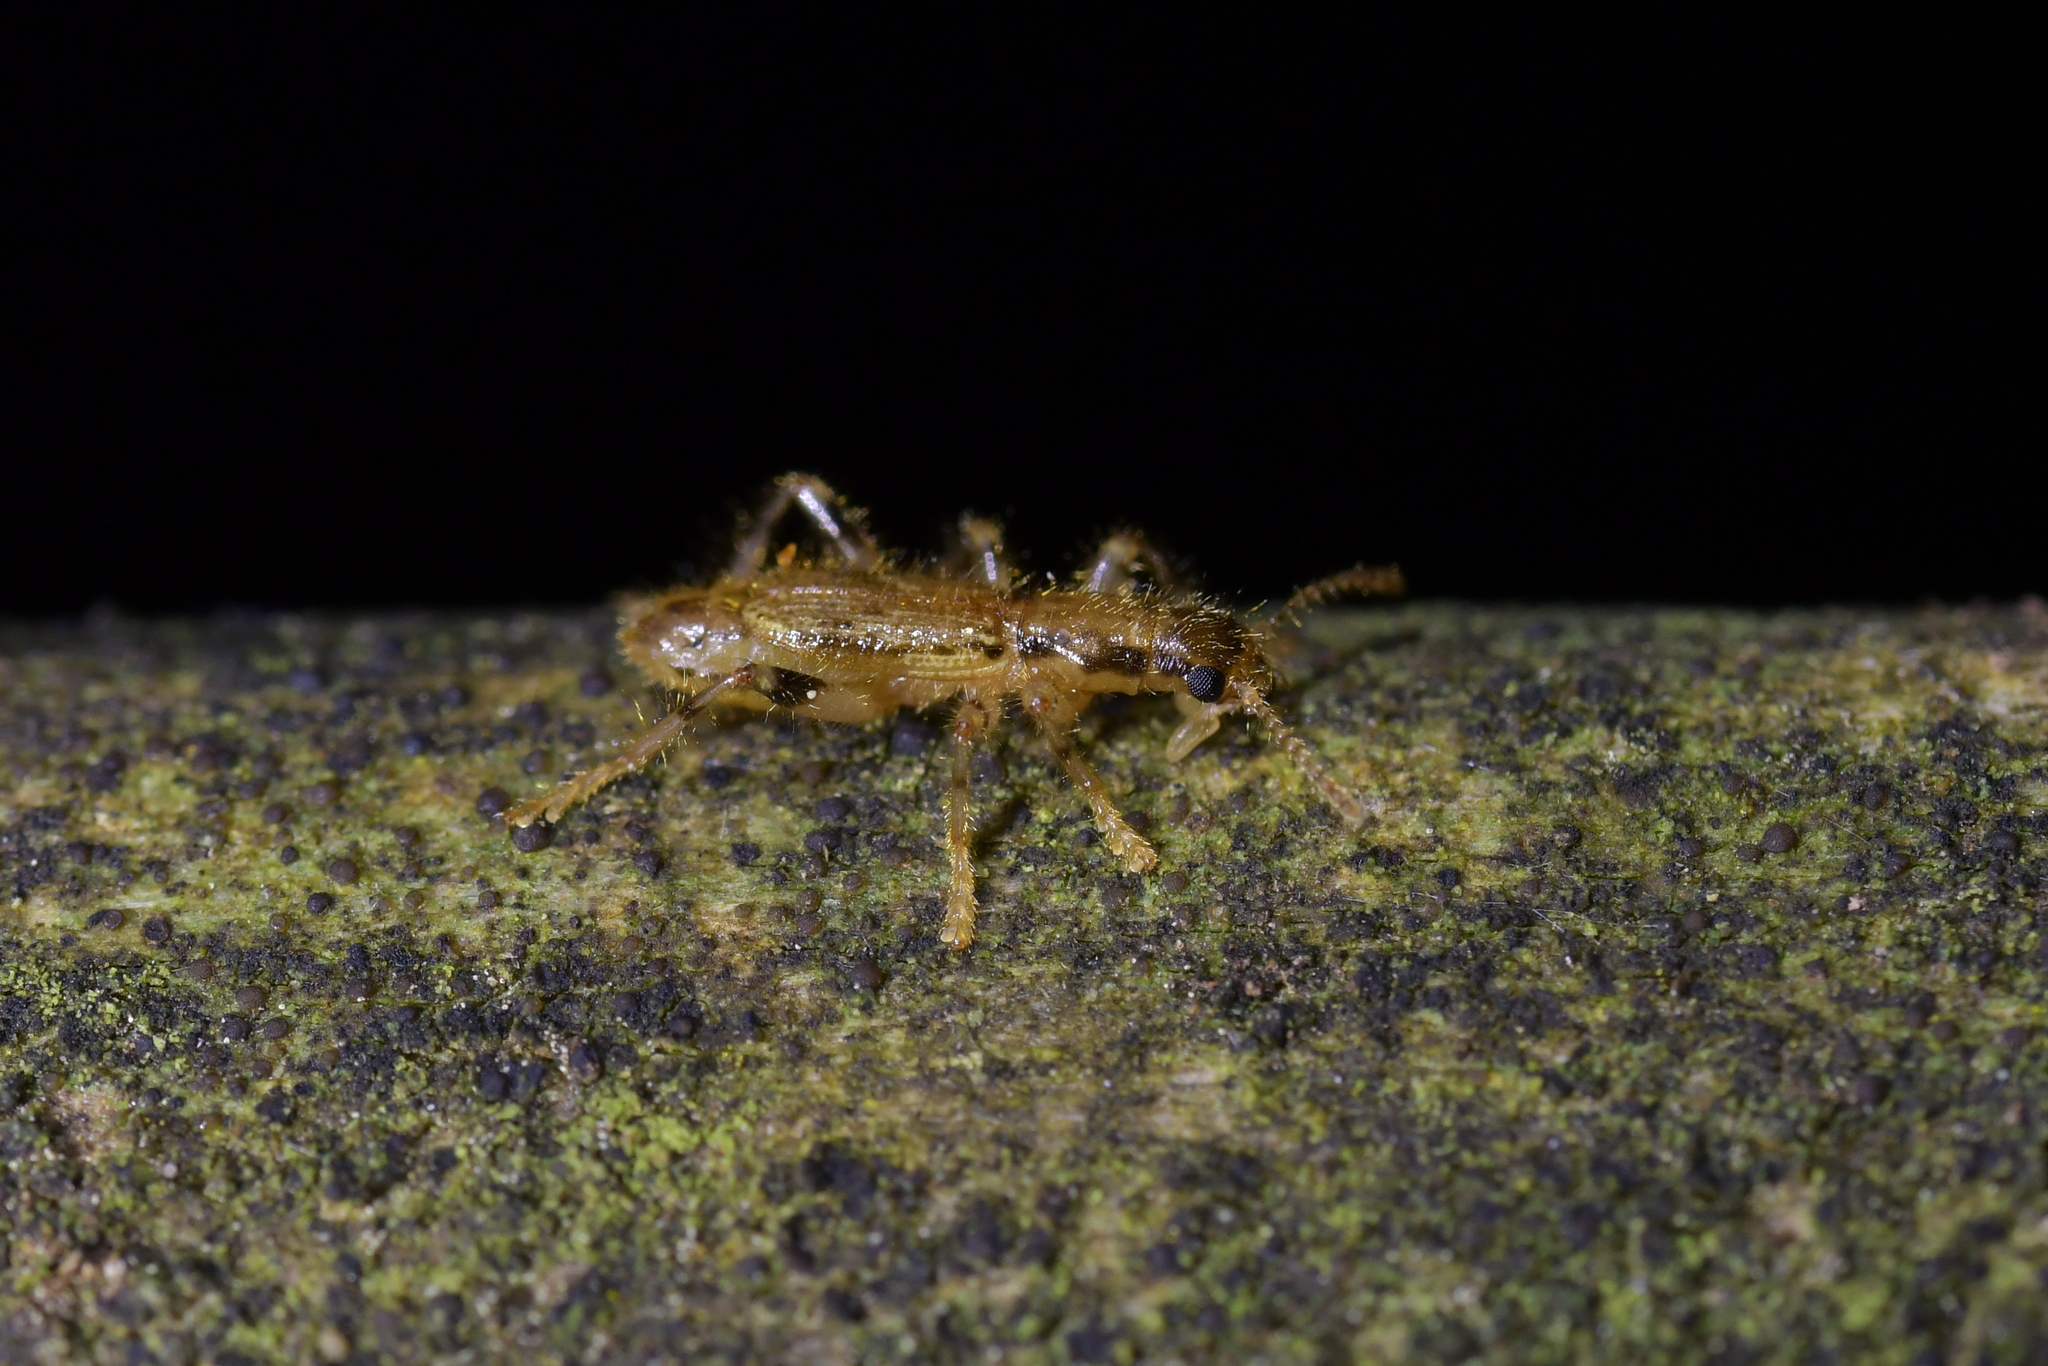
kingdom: Animalia
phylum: Arthropoda
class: Insecta
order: Coleoptera
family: Cleridae
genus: Lemidia
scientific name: Lemidia
